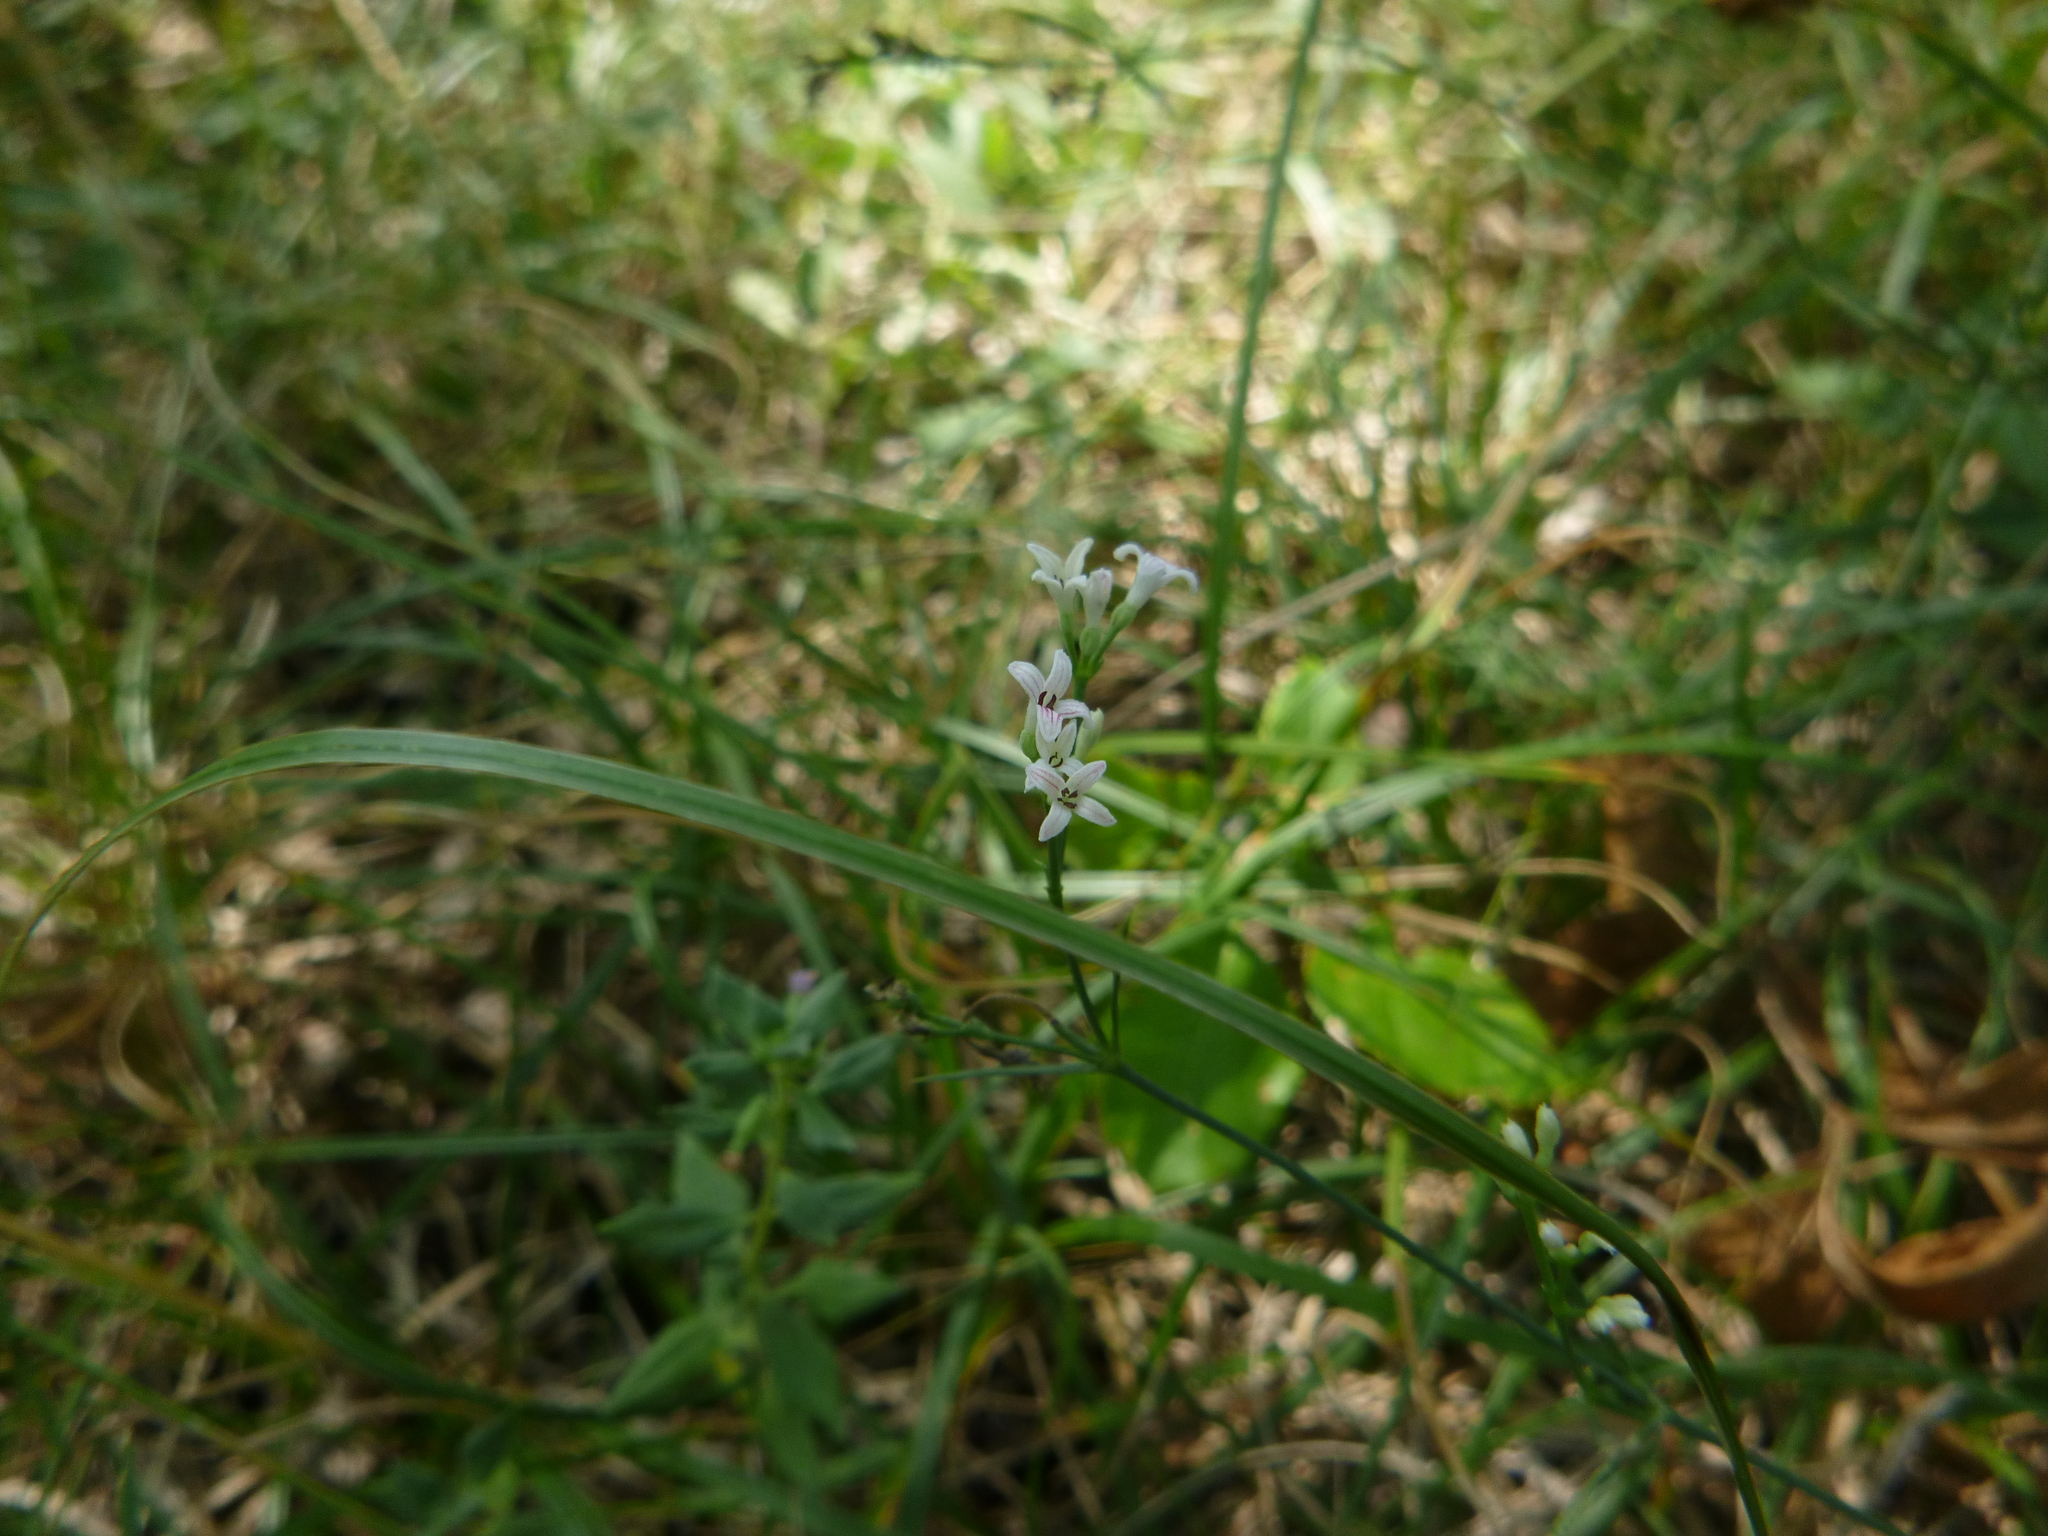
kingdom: Plantae
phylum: Tracheophyta
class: Magnoliopsida
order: Gentianales
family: Rubiaceae
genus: Cynanchica
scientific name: Cynanchica pyrenaica
